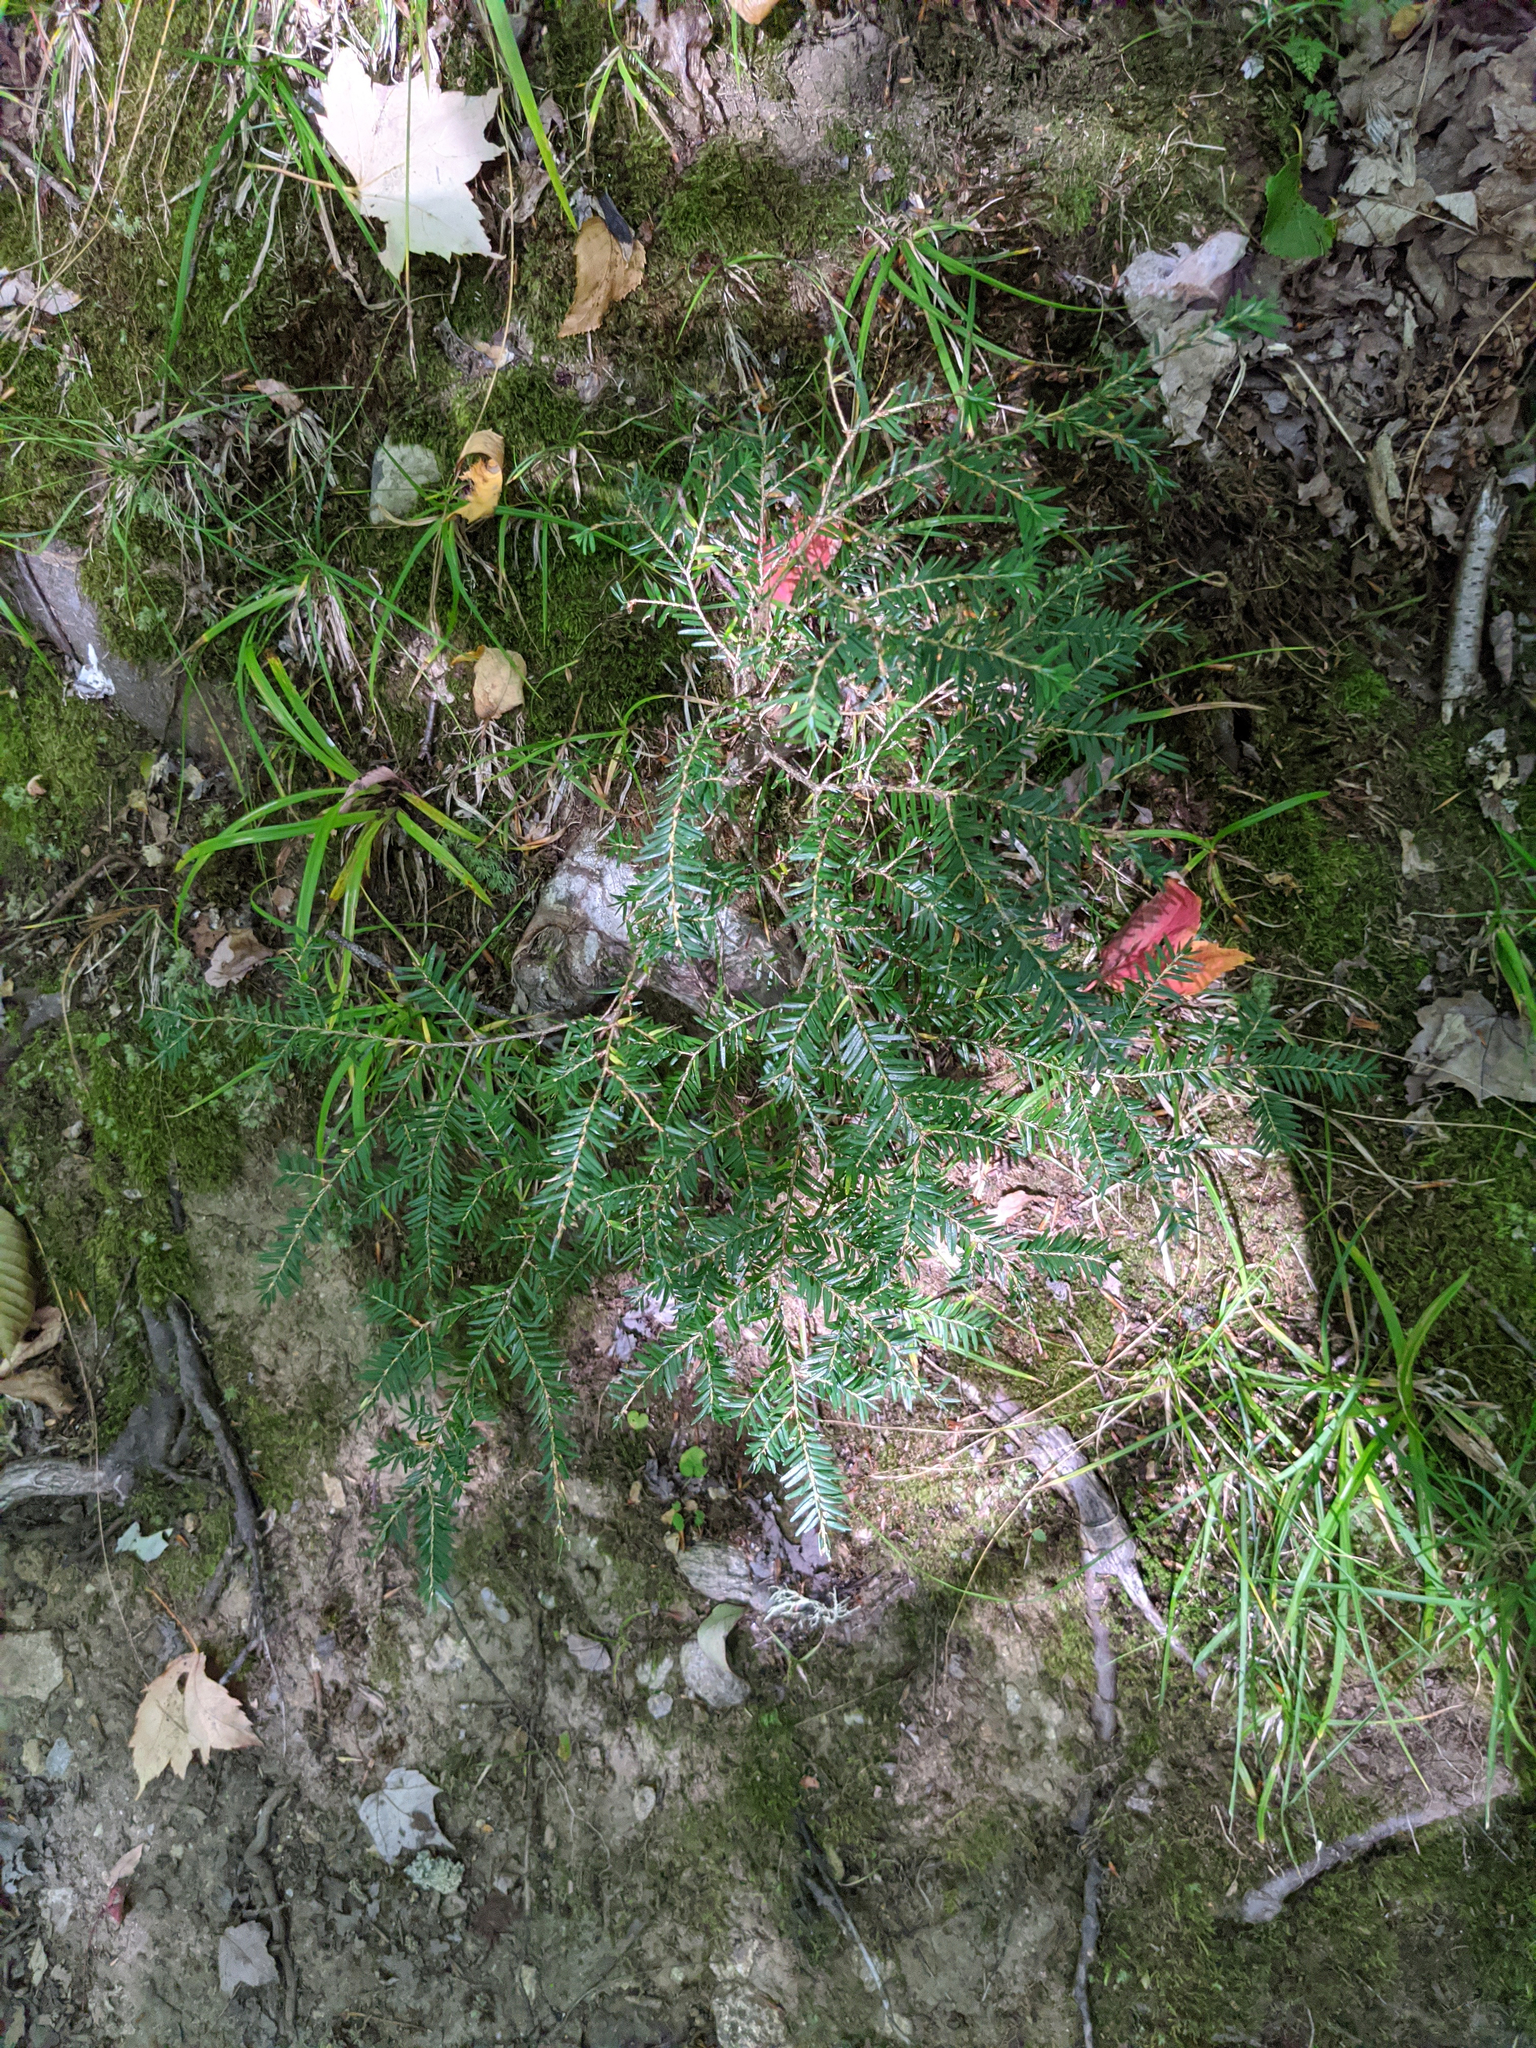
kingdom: Plantae
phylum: Tracheophyta
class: Pinopsida
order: Pinales
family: Pinaceae
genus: Tsuga
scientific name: Tsuga canadensis
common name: Eastern hemlock
